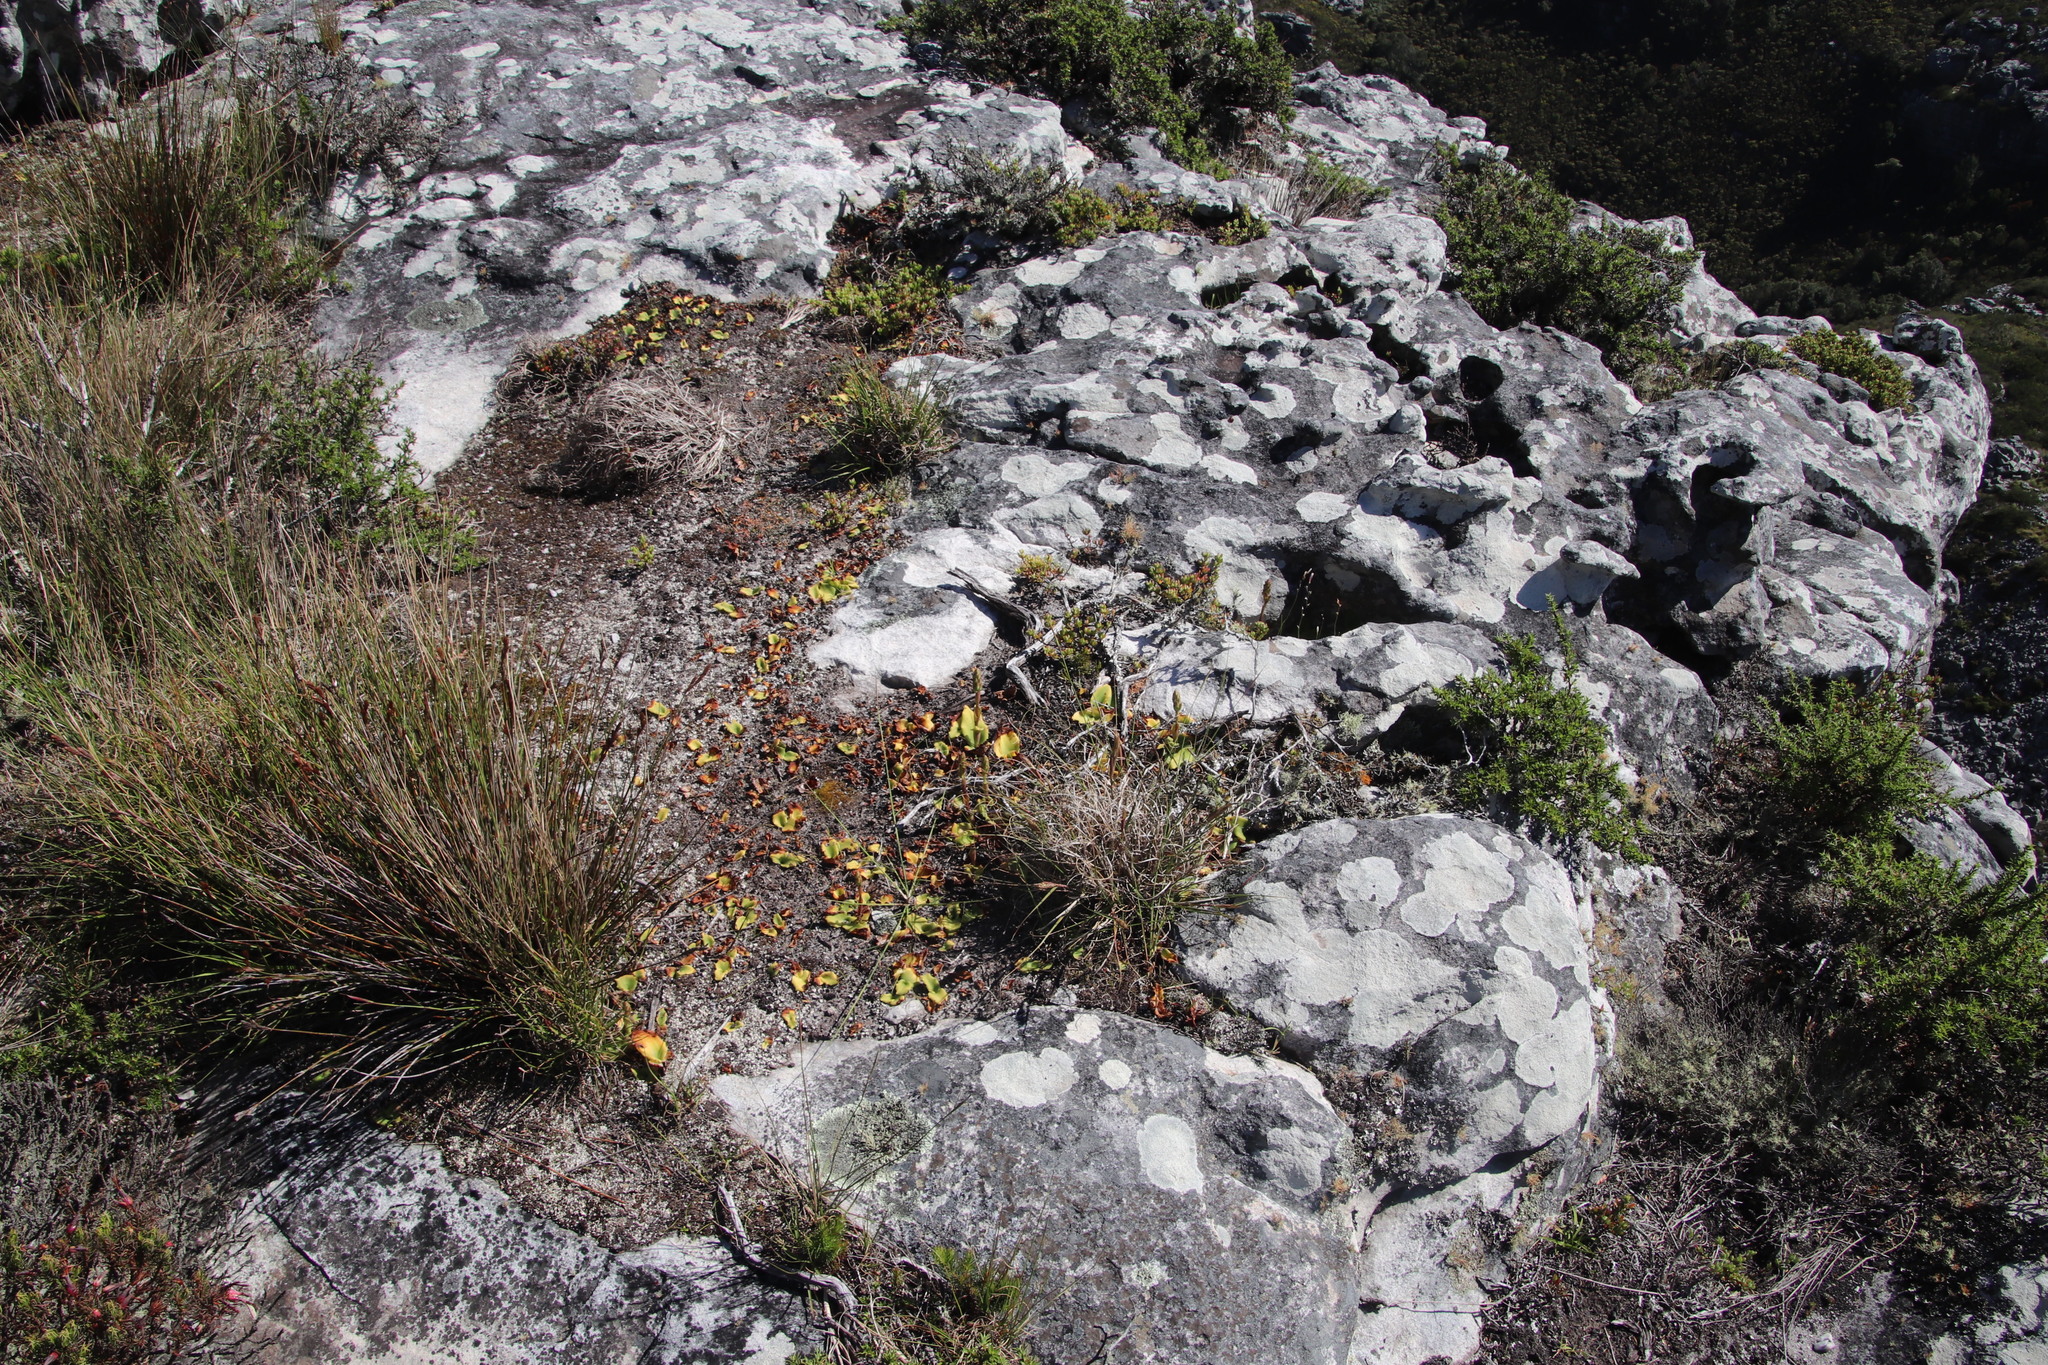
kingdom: Plantae
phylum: Tracheophyta
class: Liliopsida
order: Asparagales
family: Orchidaceae
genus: Satyrium
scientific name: Satyrium humile
